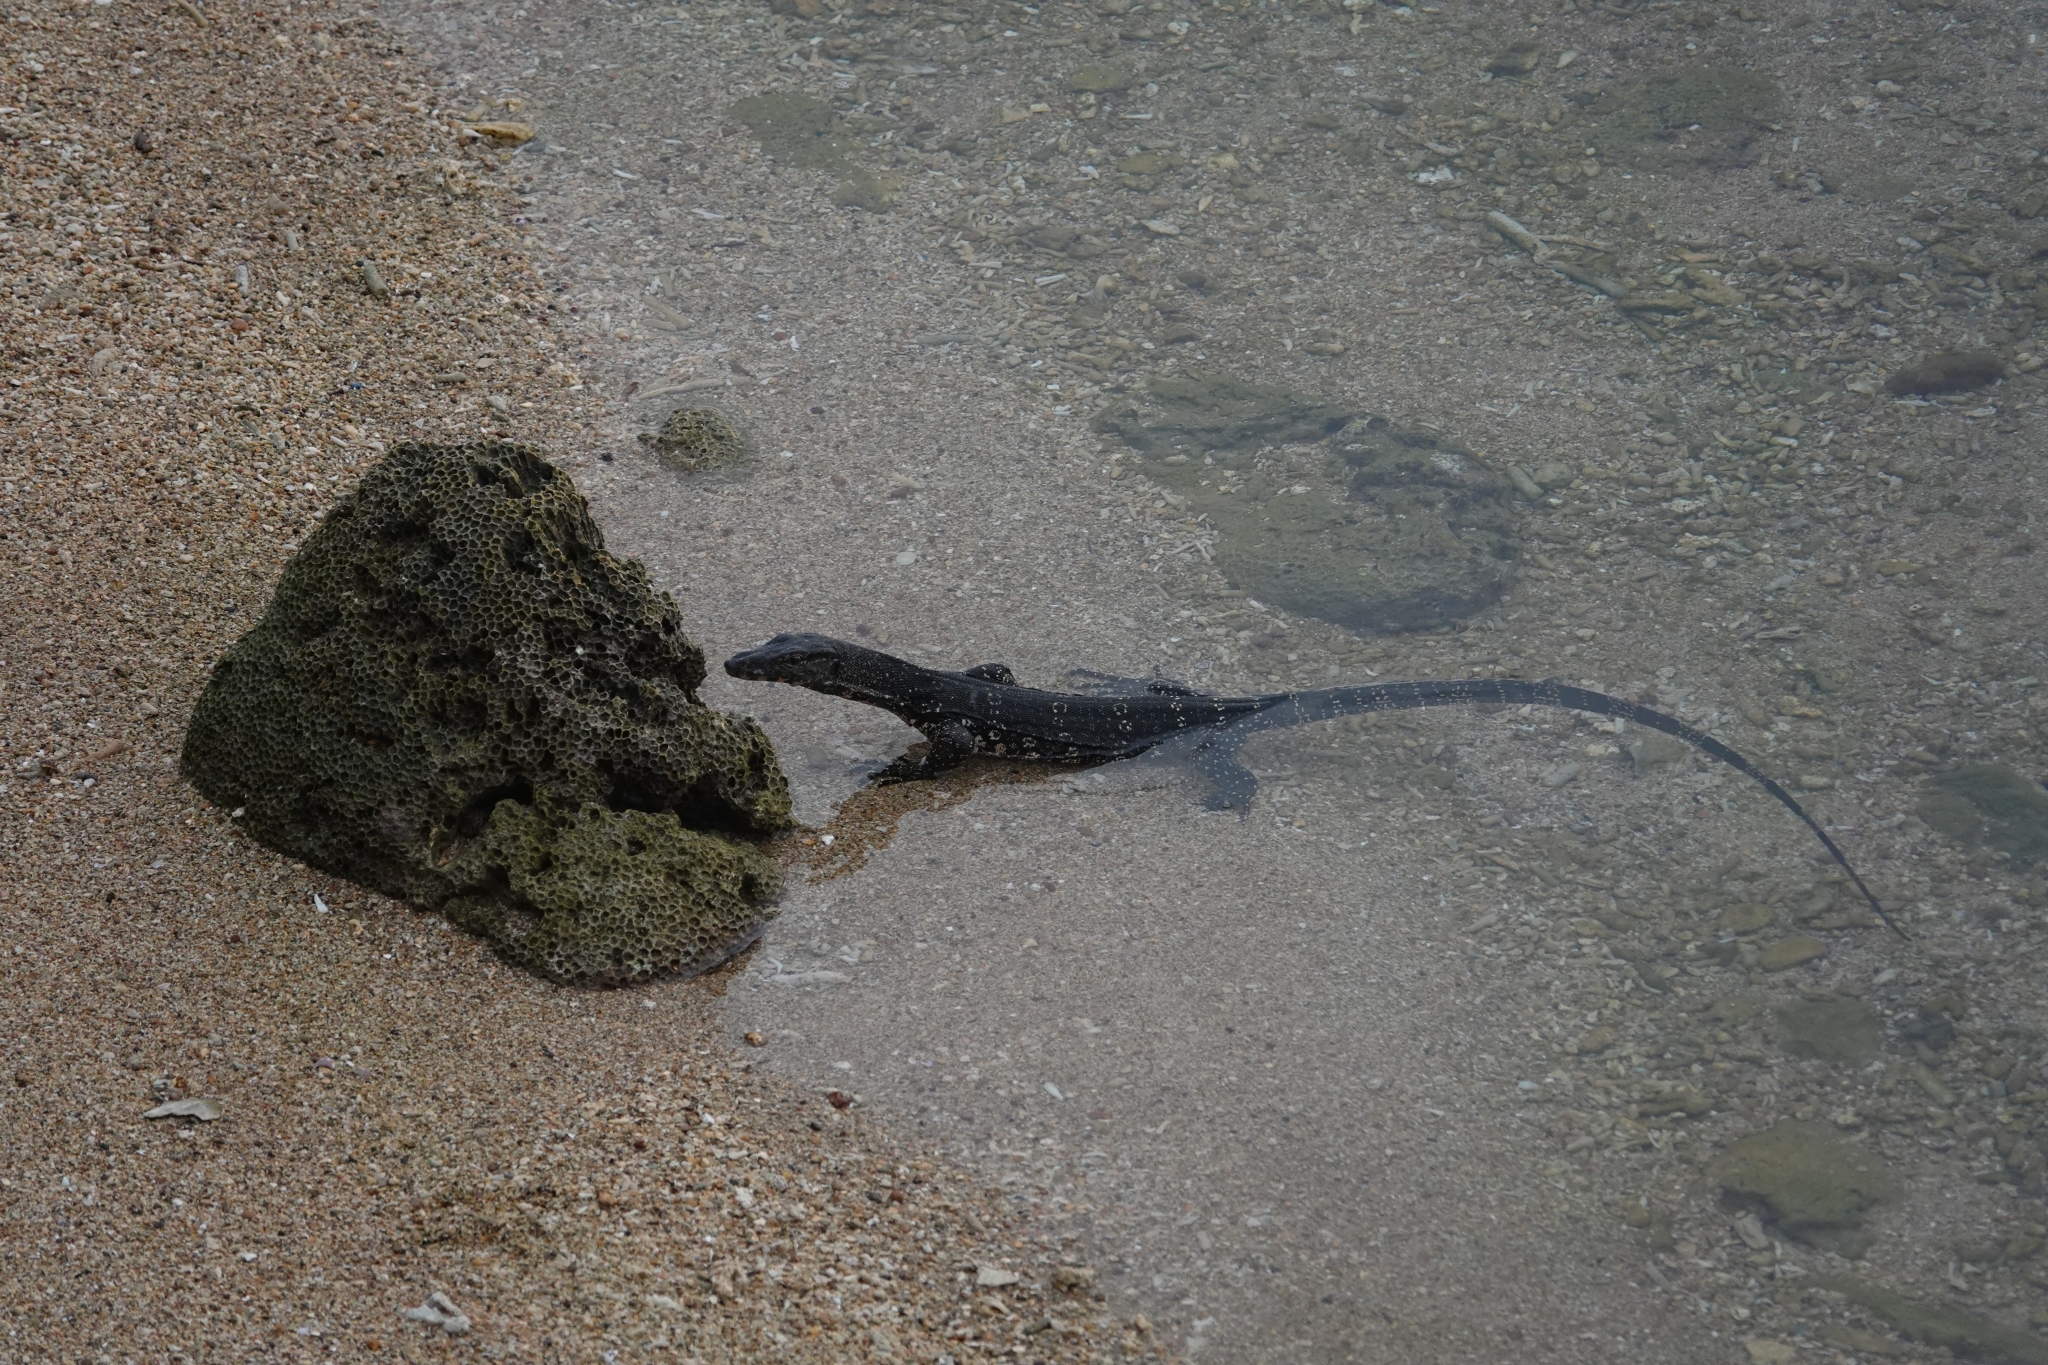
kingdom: Animalia
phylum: Chordata
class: Squamata
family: Varanidae
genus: Varanus
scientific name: Varanus salvator
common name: Common water monitor
